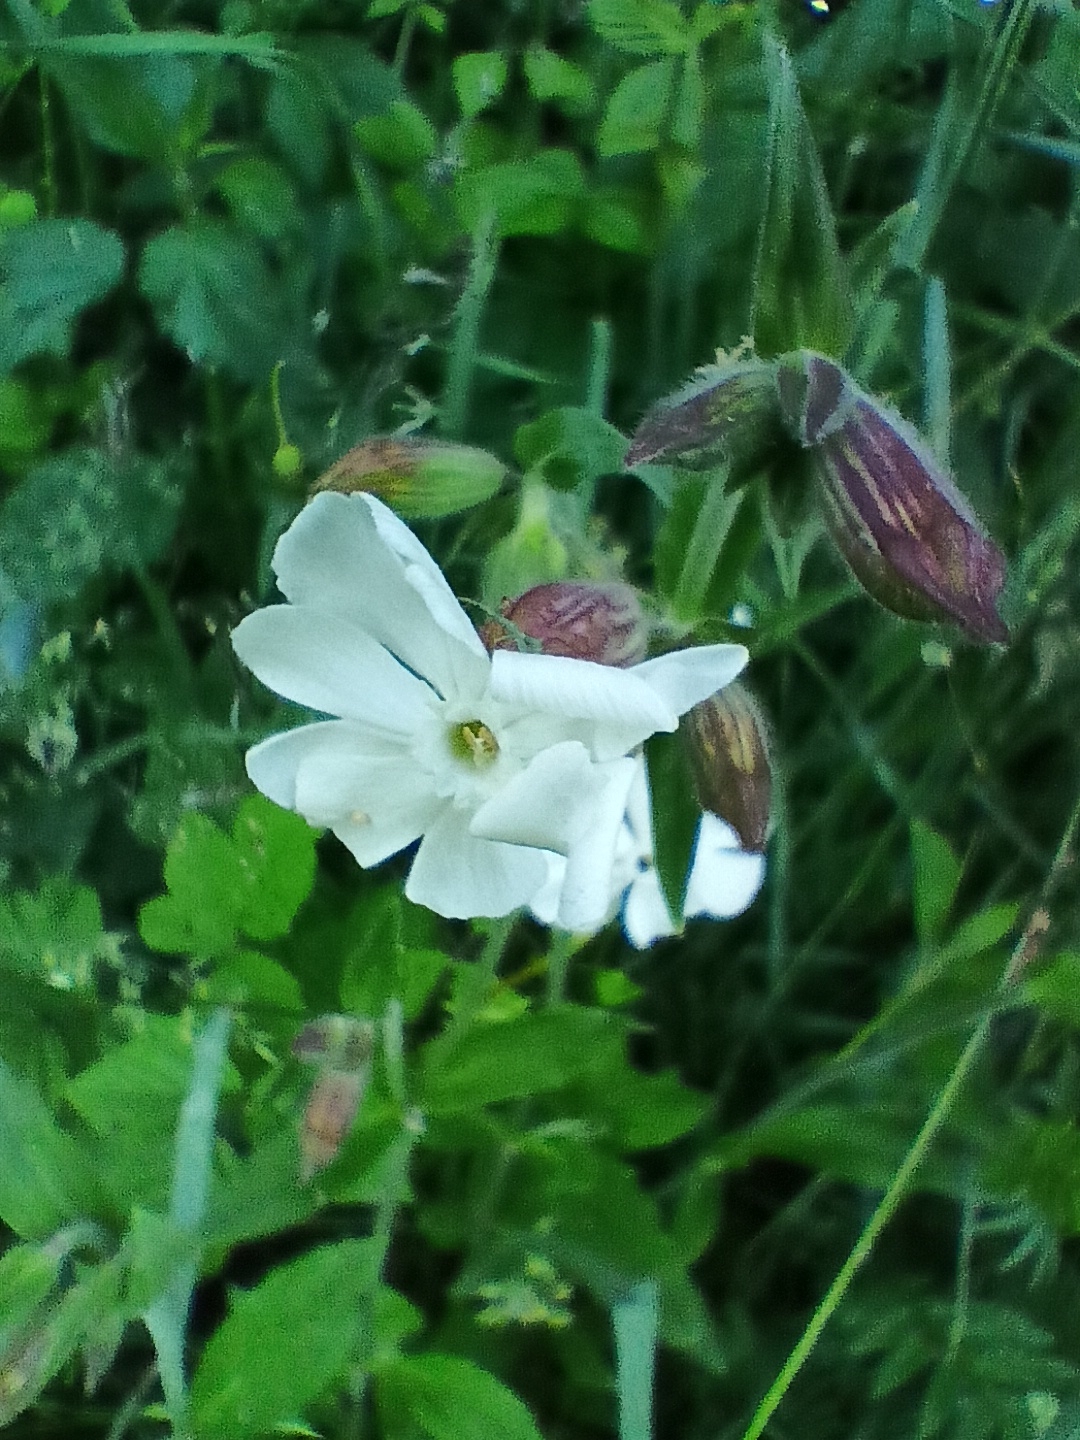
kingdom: Plantae
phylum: Tracheophyta
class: Magnoliopsida
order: Caryophyllales
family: Caryophyllaceae
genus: Silene
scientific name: Silene latifolia
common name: White campion
